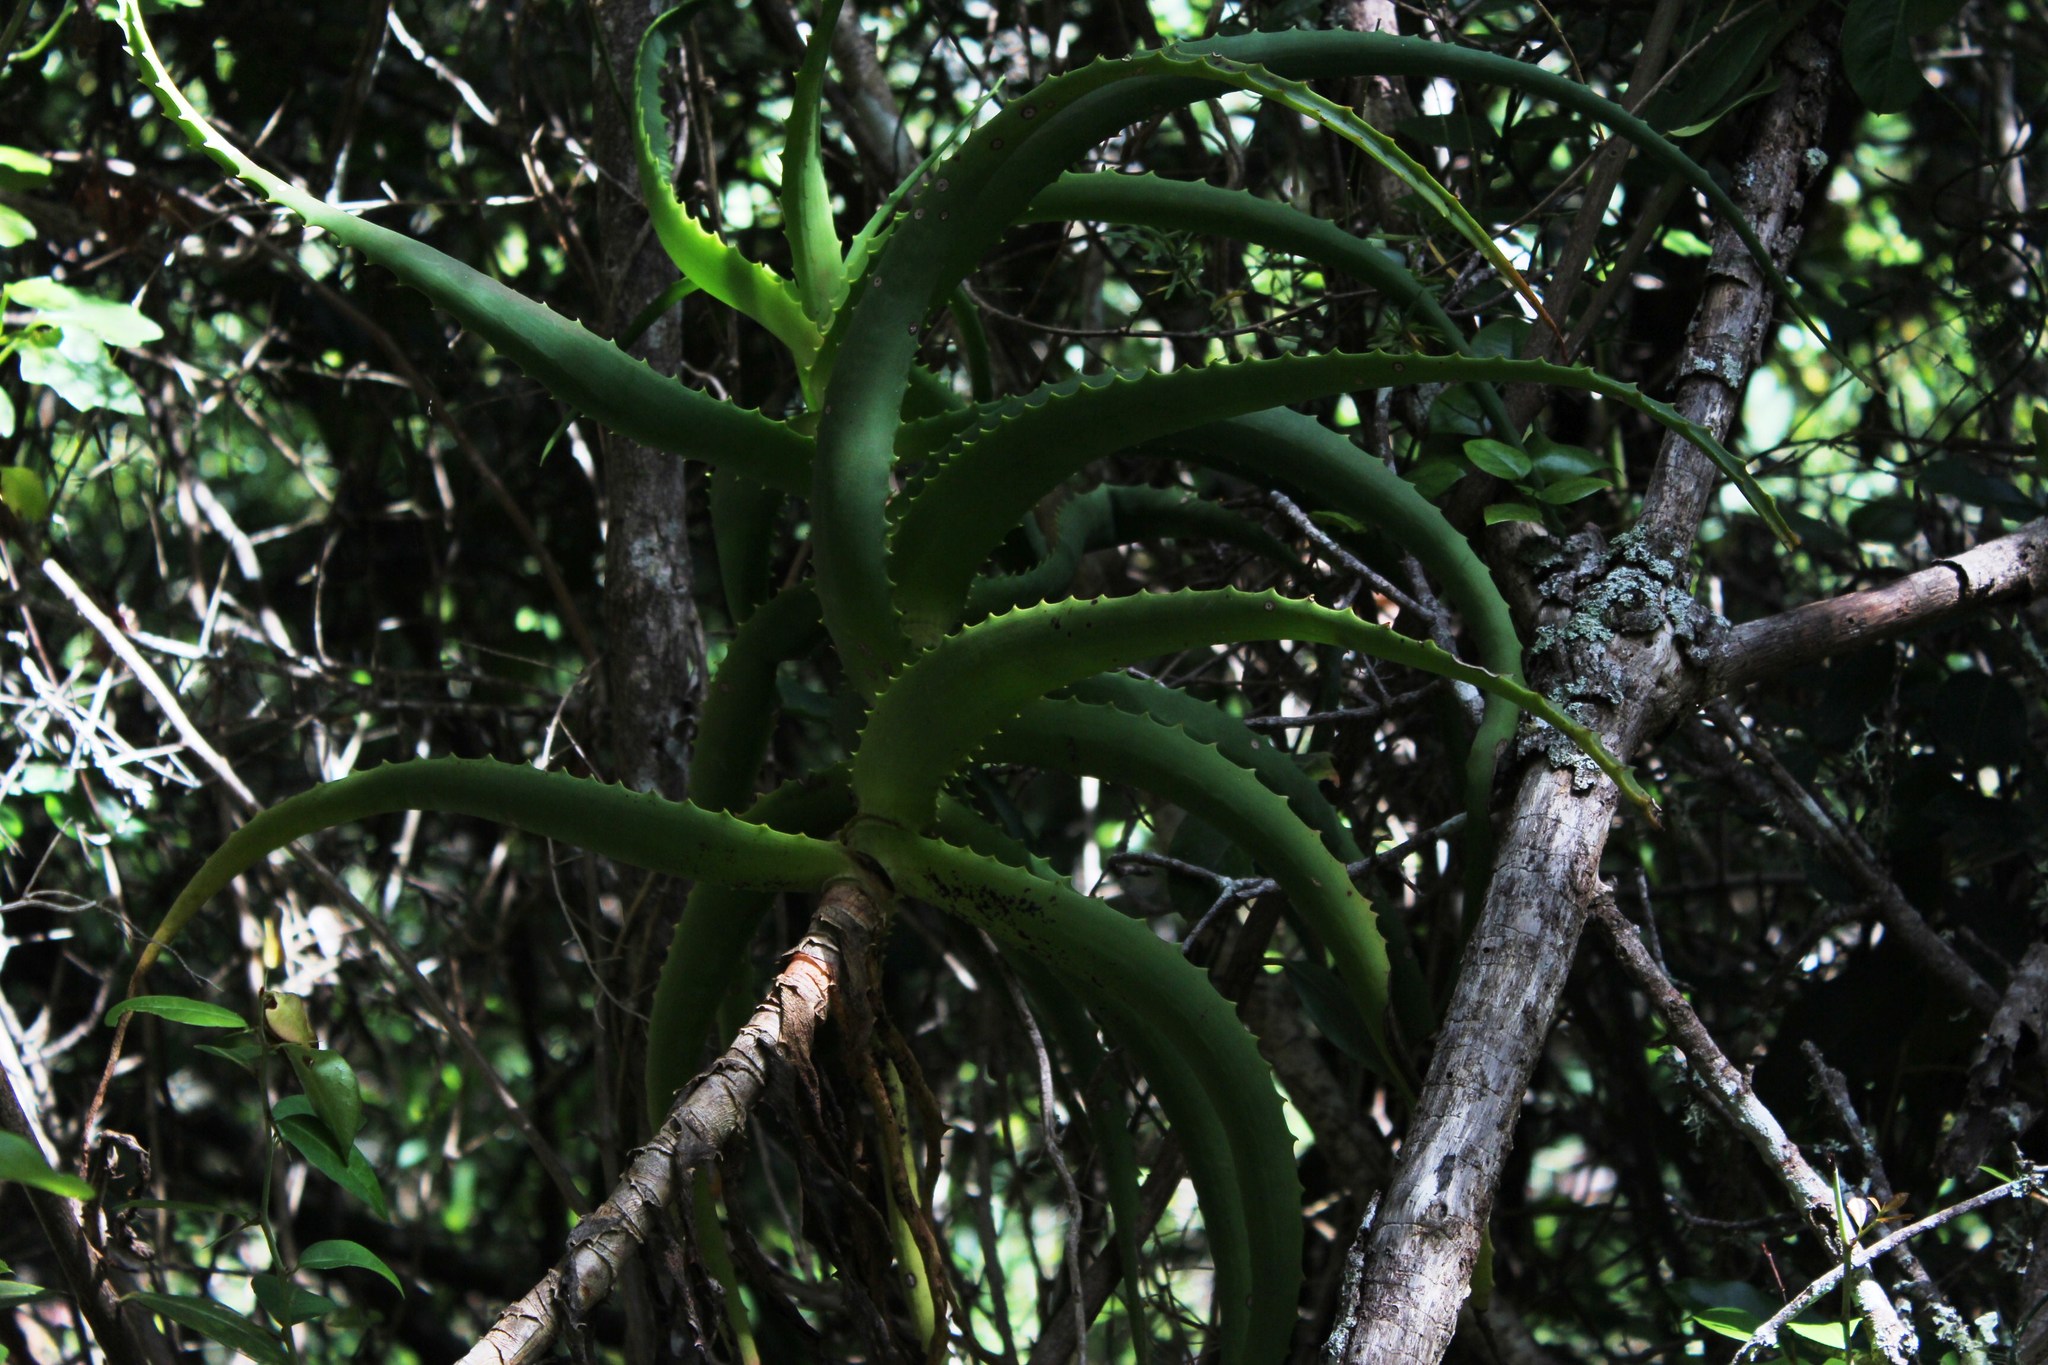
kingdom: Plantae
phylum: Tracheophyta
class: Liliopsida
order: Asparagales
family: Asphodelaceae
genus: Aloe
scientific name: Aloe arborescens
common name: Candelabra aloe
